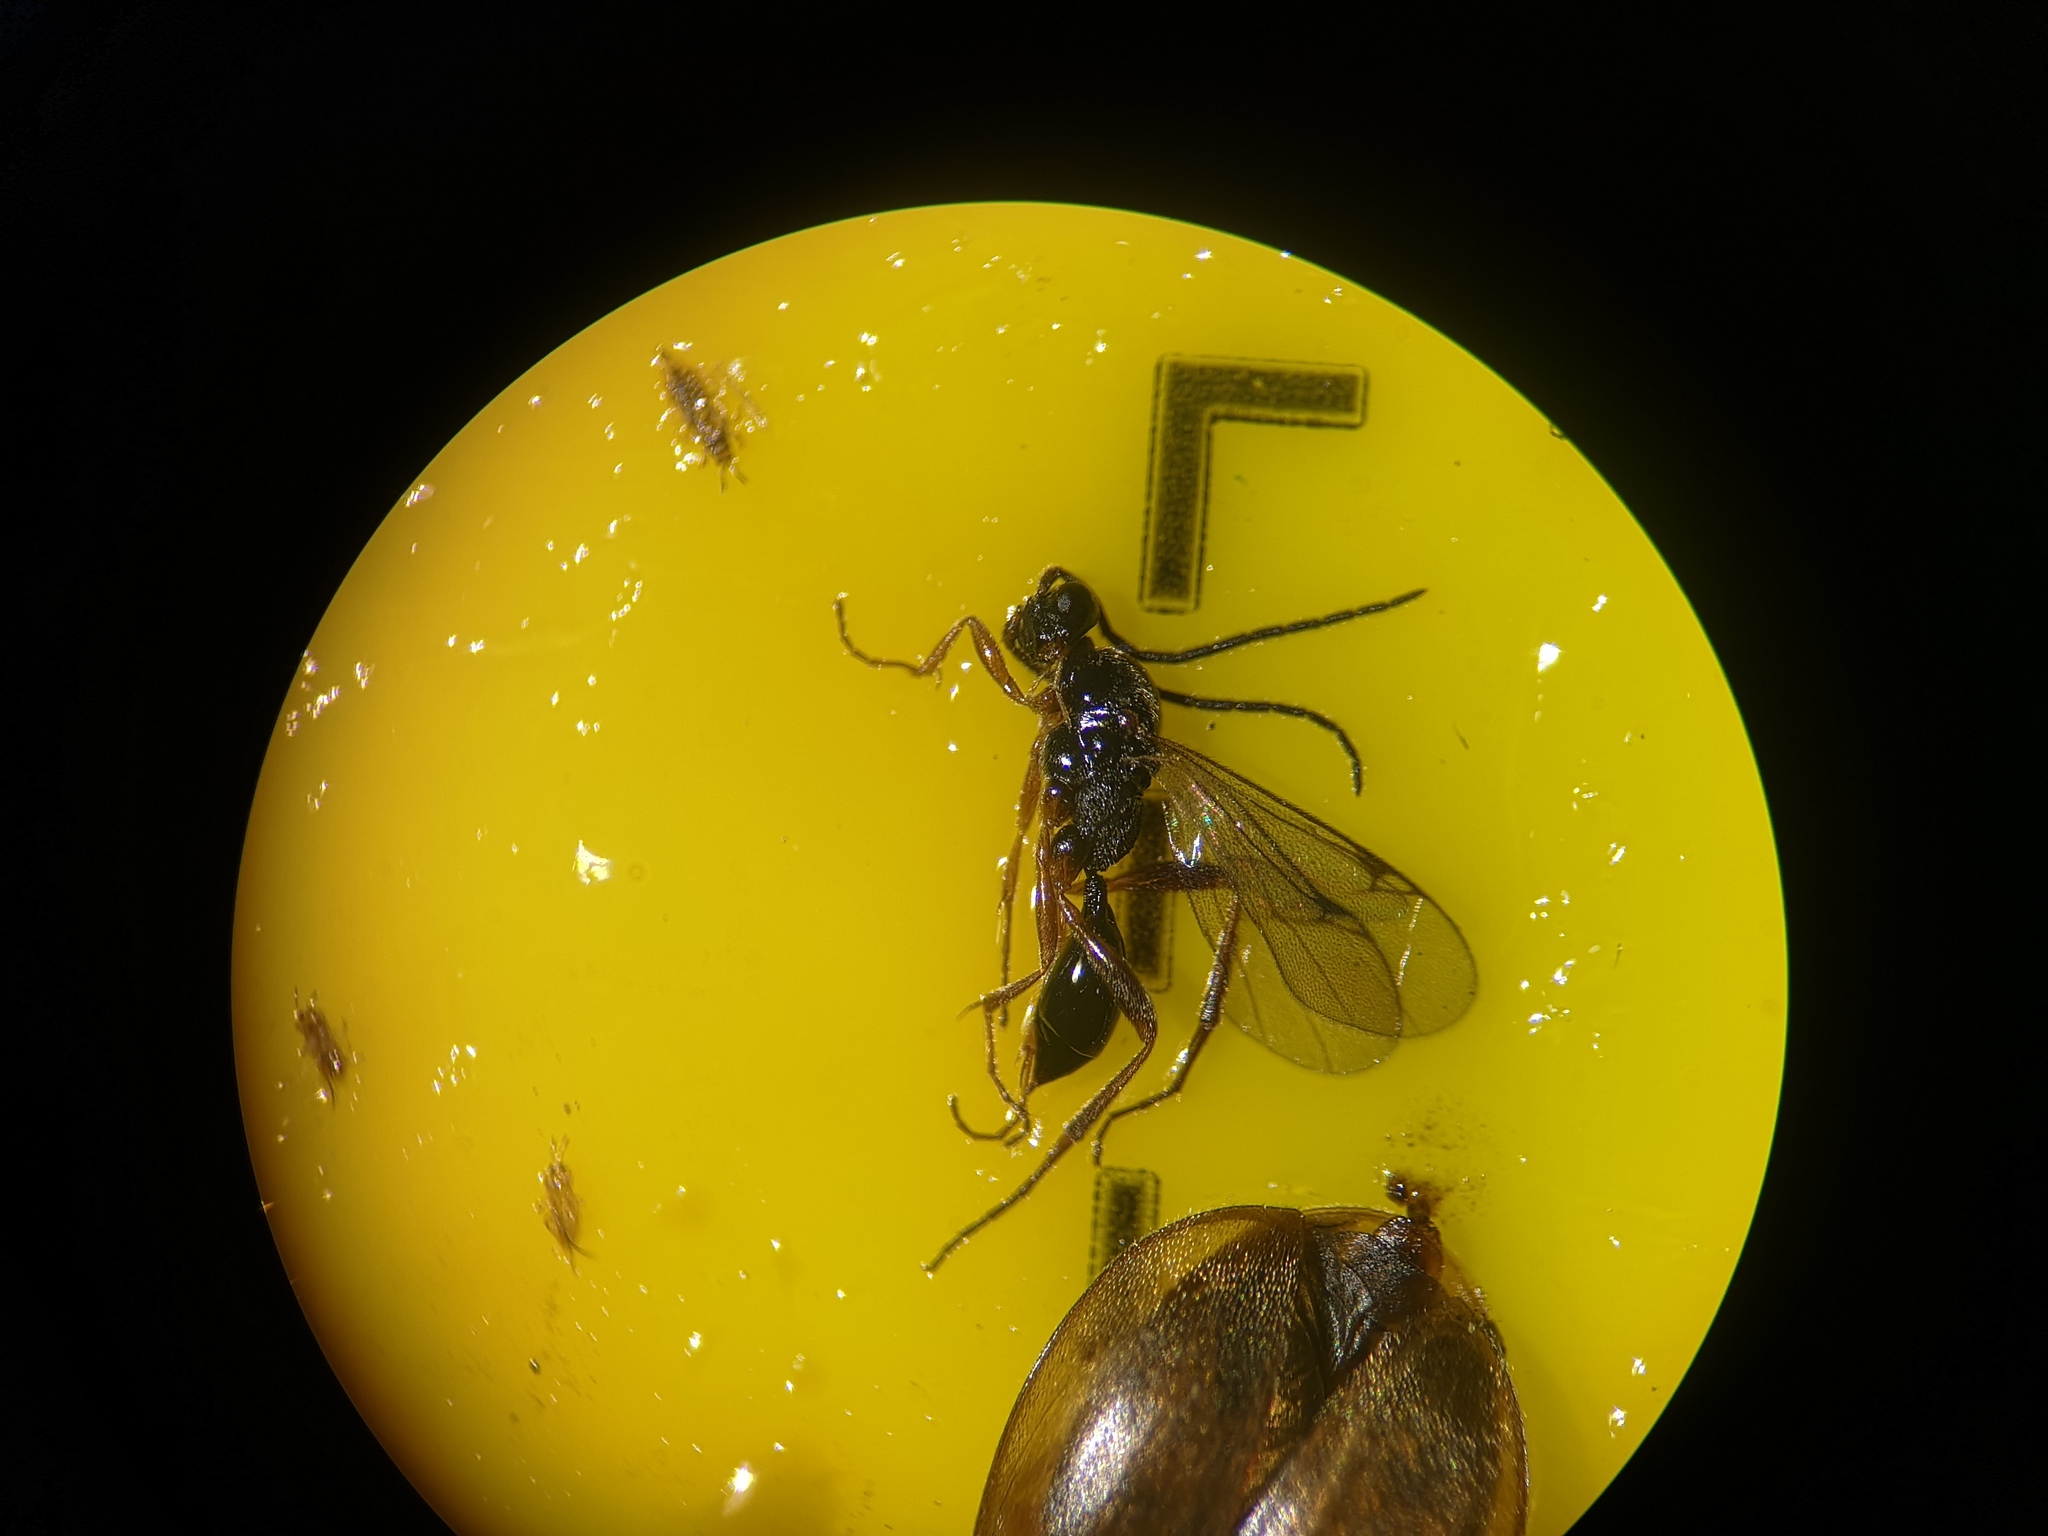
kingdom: Animalia
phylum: Arthropoda
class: Insecta
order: Hymenoptera
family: Proctotrupidae
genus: Phaneroserphus
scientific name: Phaneroserphus calcar
